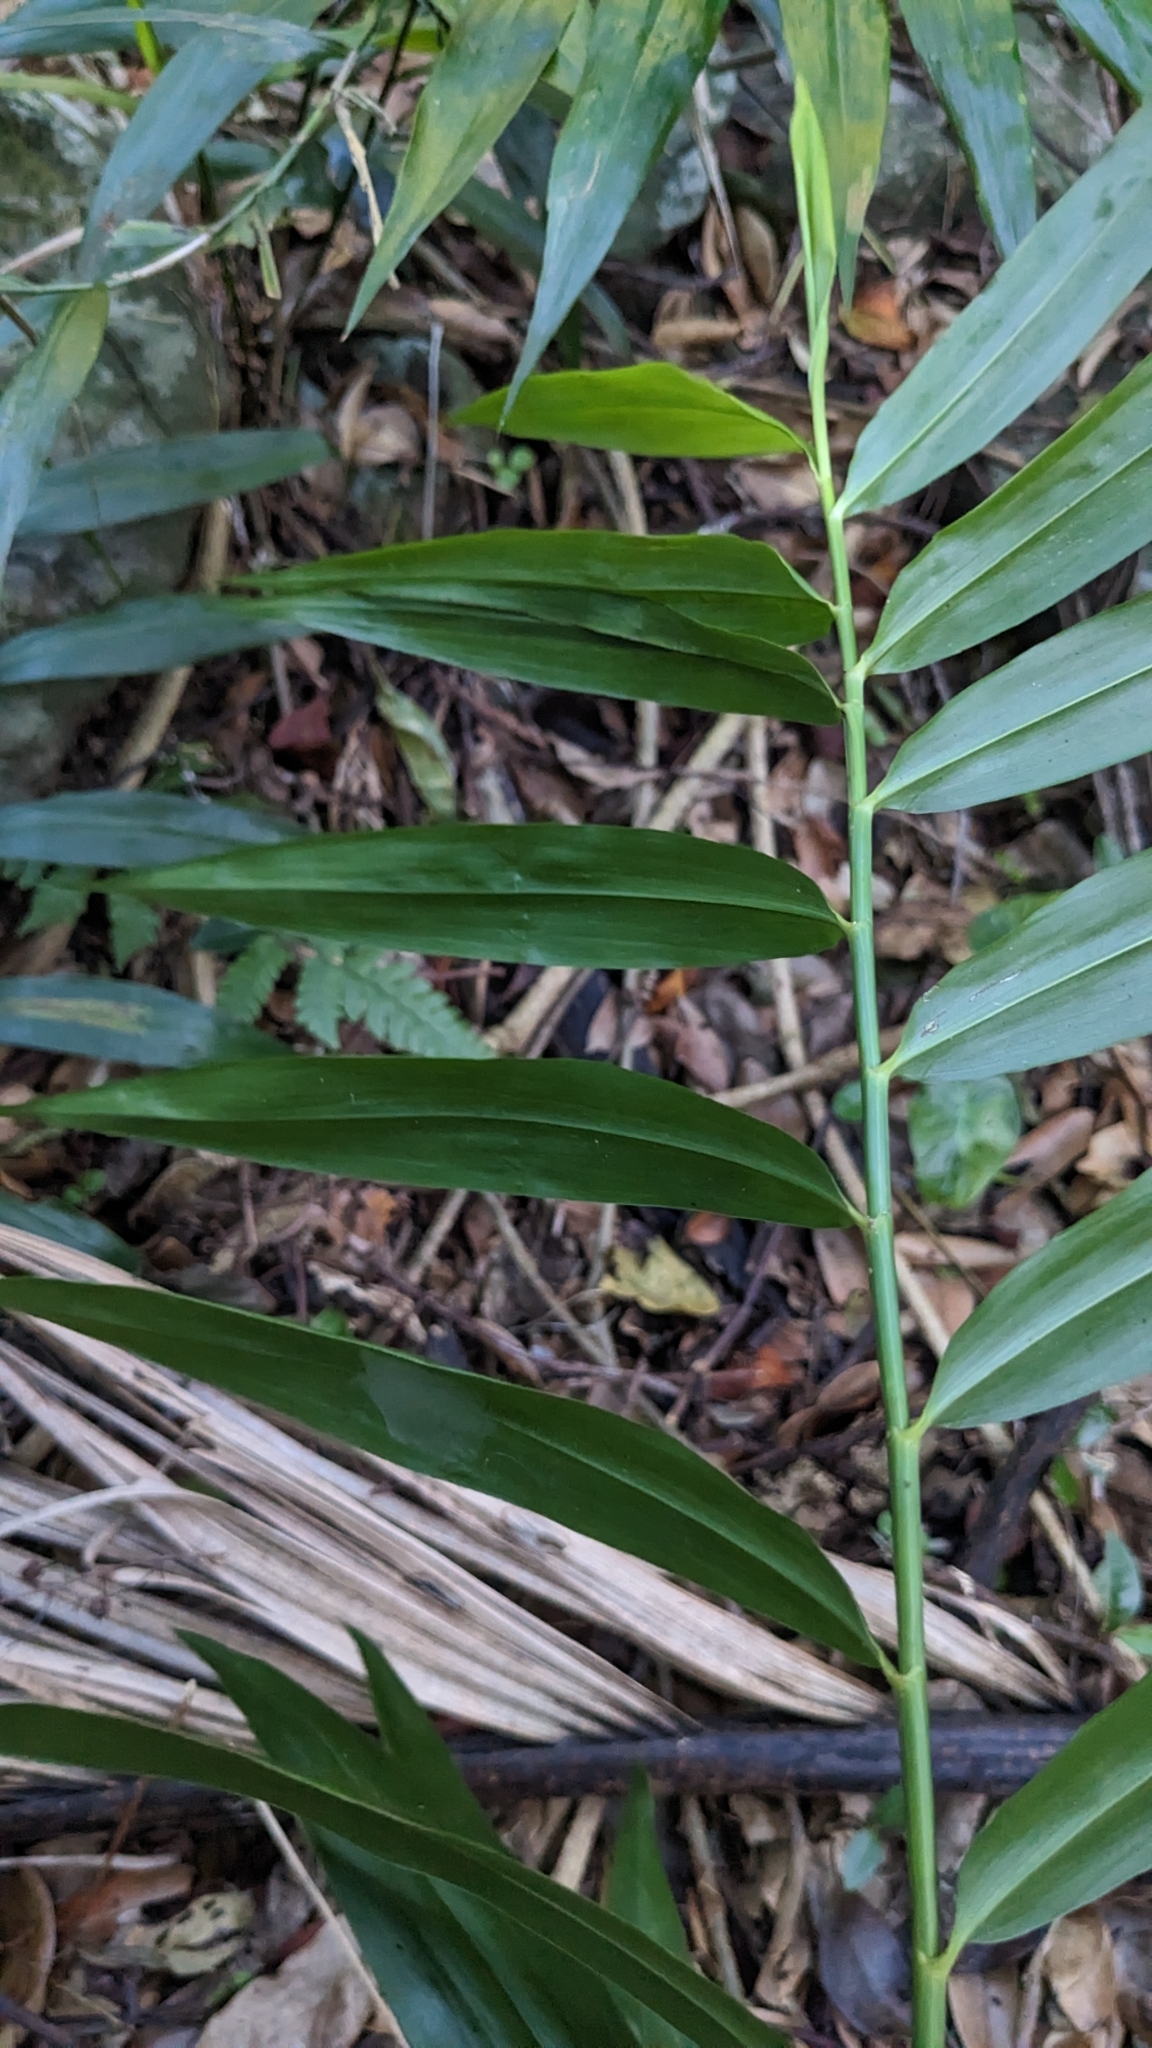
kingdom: Plantae
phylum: Tracheophyta
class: Liliopsida
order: Poales
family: Flagellariaceae
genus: Flagellaria
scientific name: Flagellaria indica
